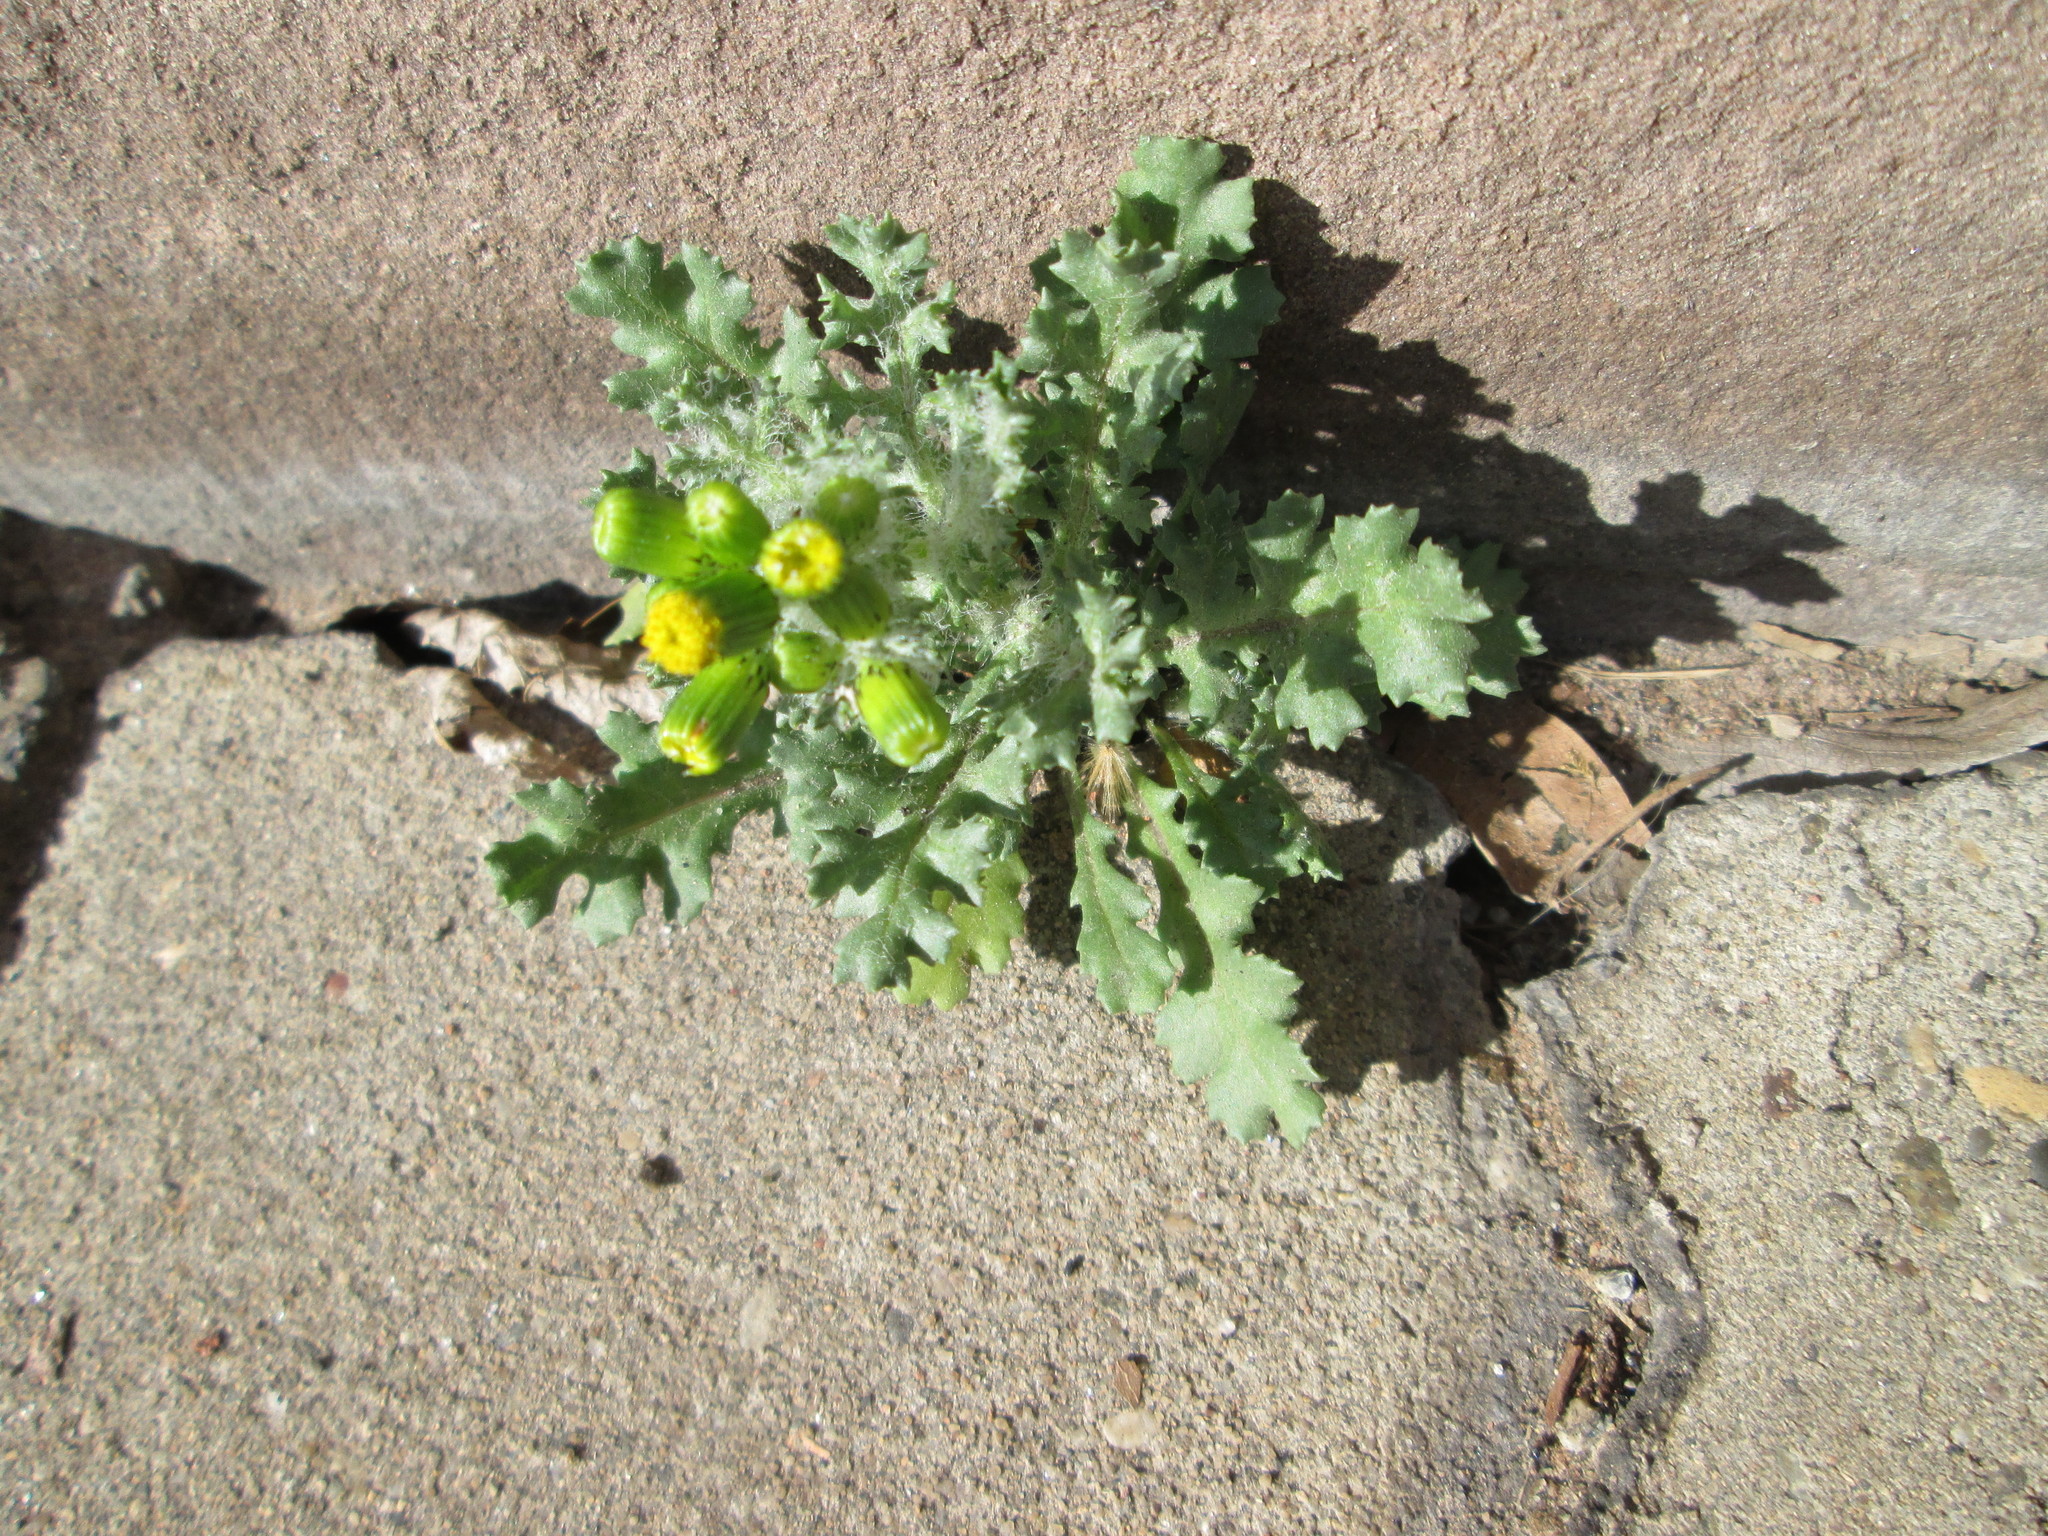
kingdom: Plantae
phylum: Tracheophyta
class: Magnoliopsida
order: Asterales
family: Asteraceae
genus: Senecio
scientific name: Senecio vulgaris
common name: Old-man-in-the-spring
